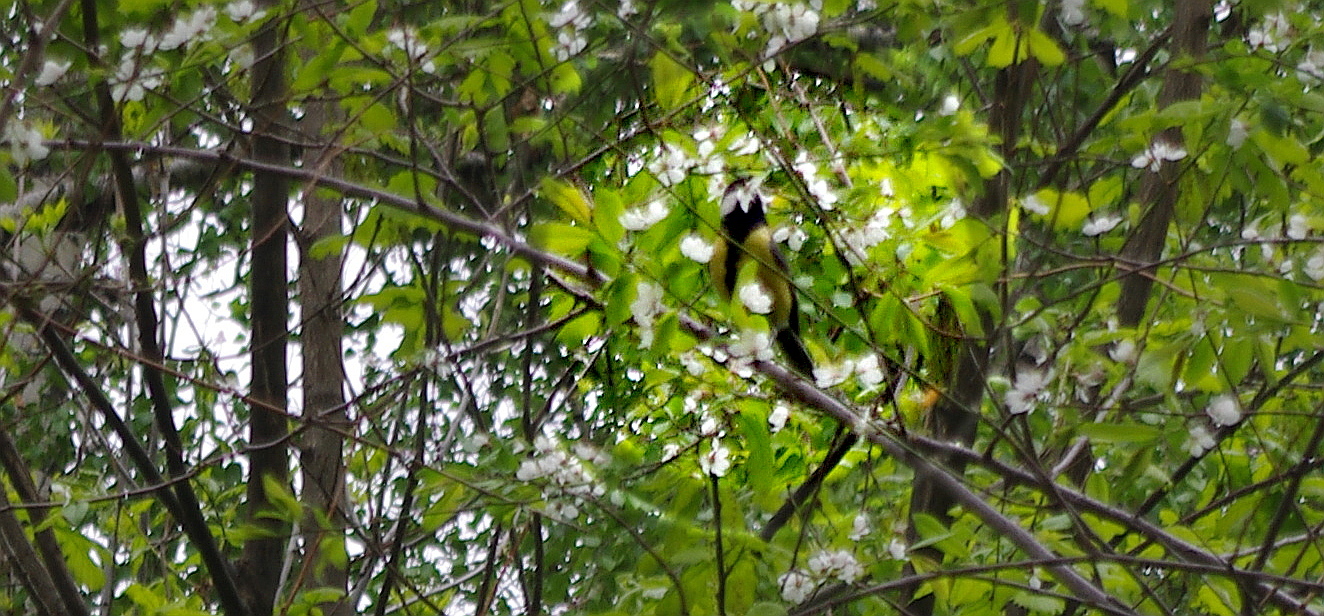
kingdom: Animalia
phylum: Chordata
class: Aves
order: Passeriformes
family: Paridae
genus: Parus
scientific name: Parus major
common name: Great tit
